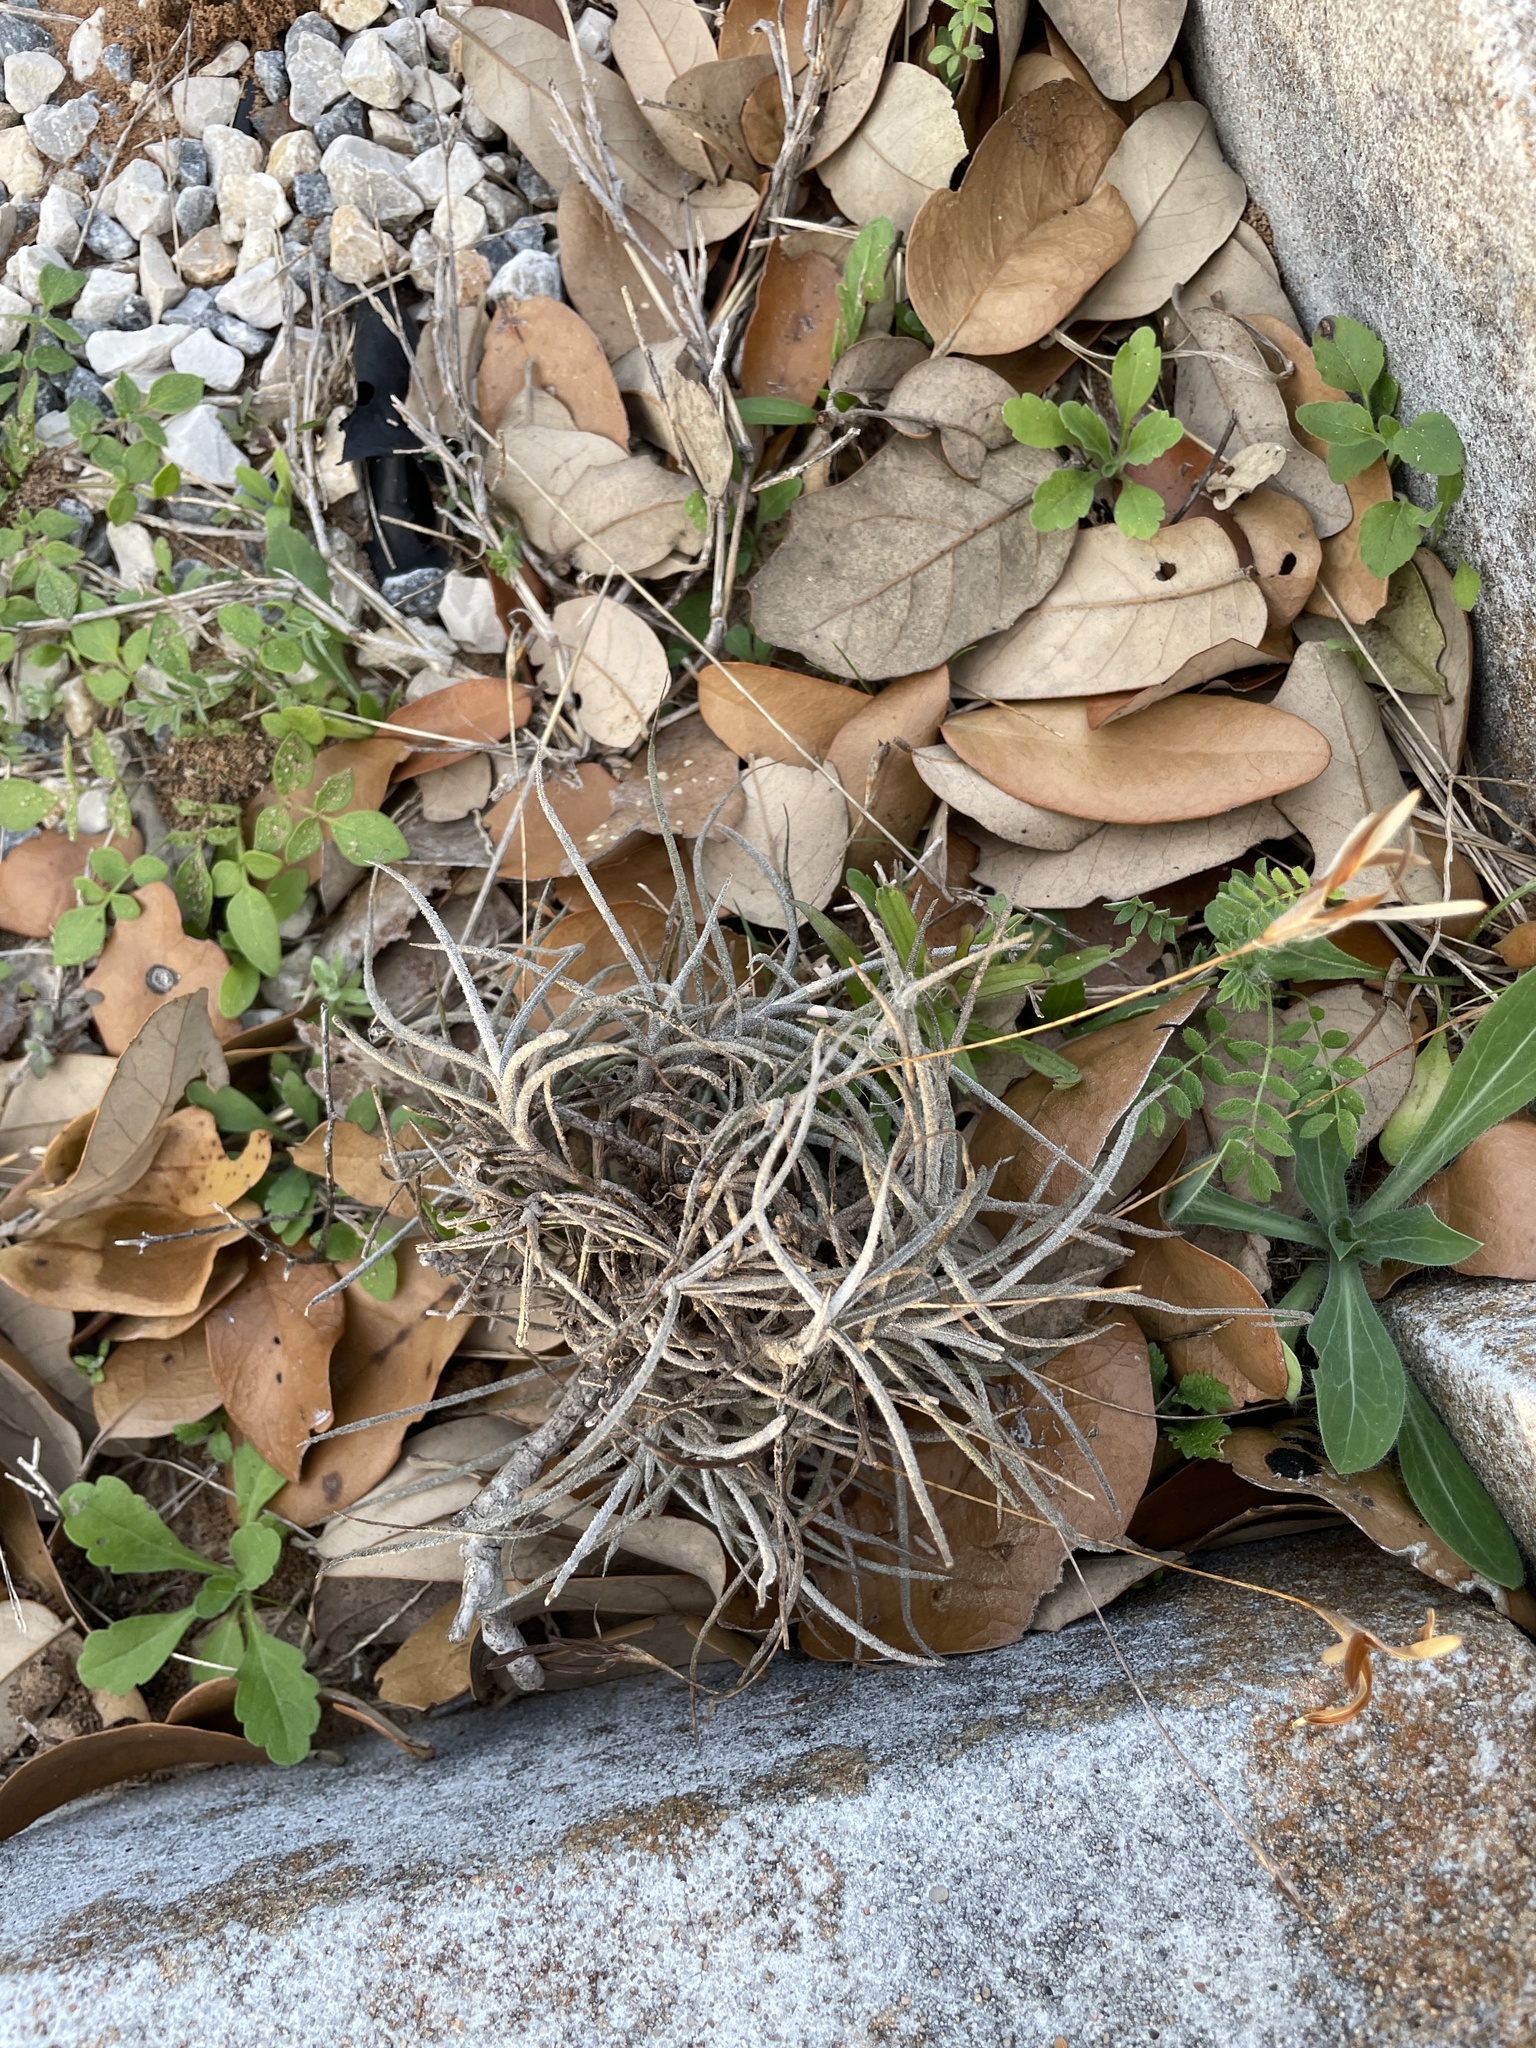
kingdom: Plantae
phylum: Tracheophyta
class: Liliopsida
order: Poales
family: Bromeliaceae
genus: Tillandsia
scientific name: Tillandsia recurvata
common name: Small ballmoss
